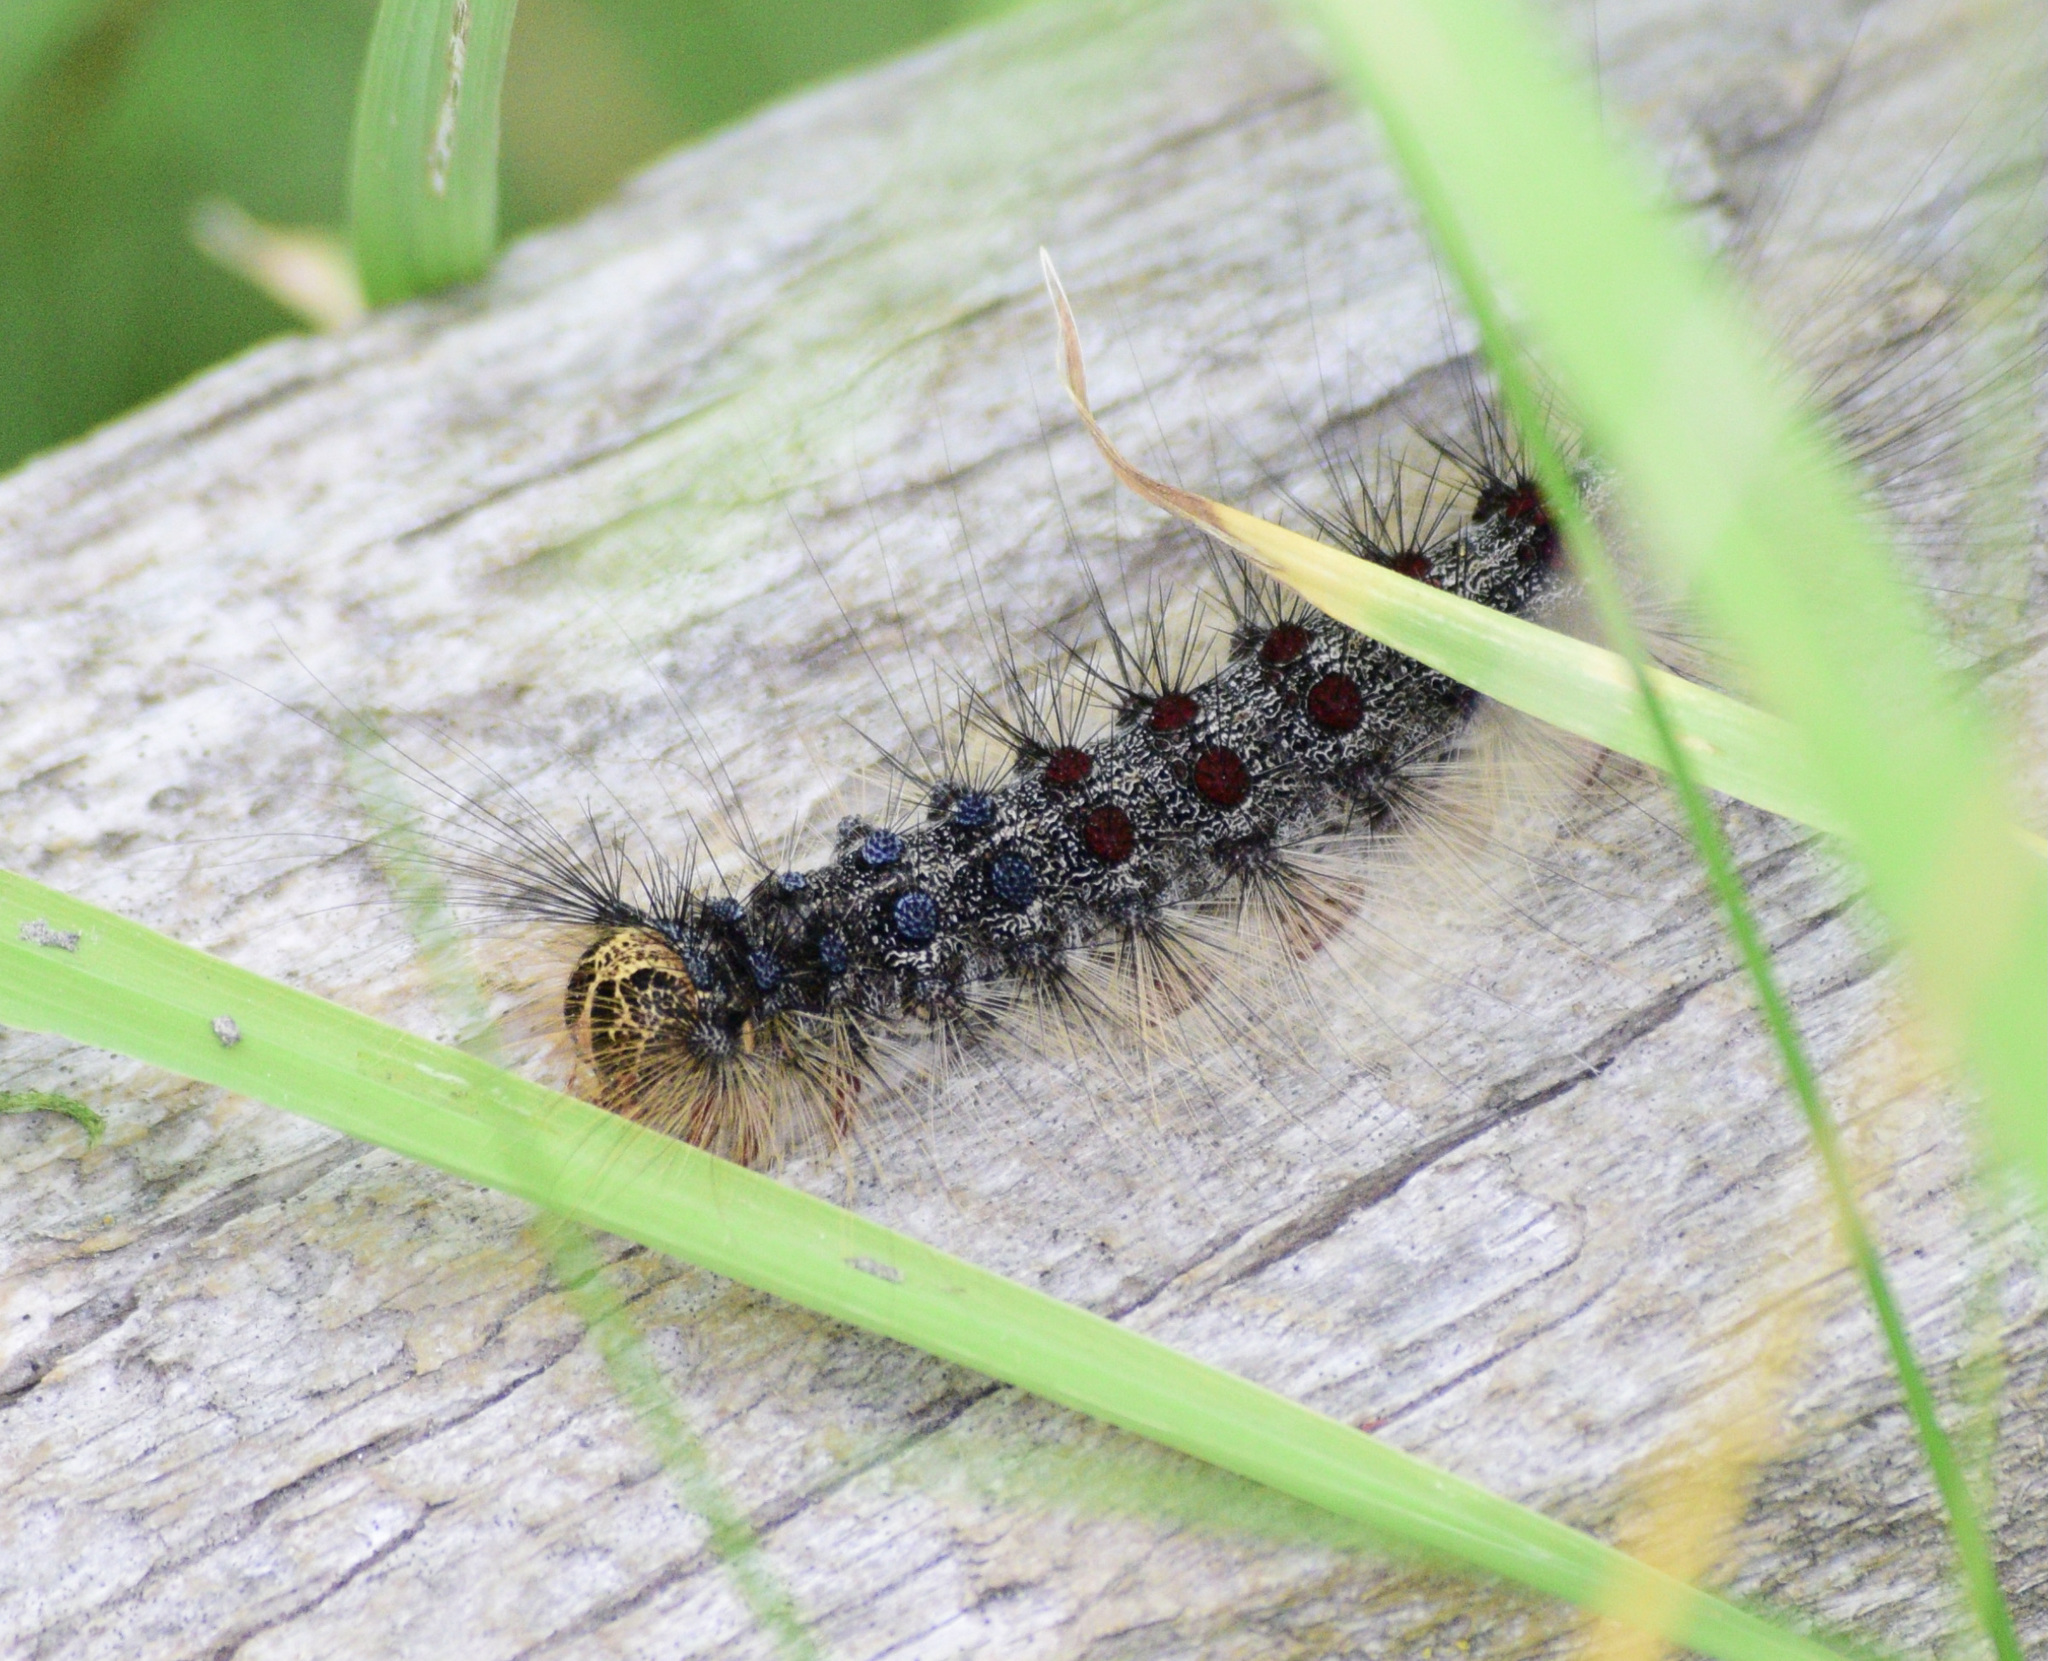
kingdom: Animalia
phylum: Arthropoda
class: Insecta
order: Lepidoptera
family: Erebidae
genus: Lymantria
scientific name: Lymantria dispar
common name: Gypsy moth
